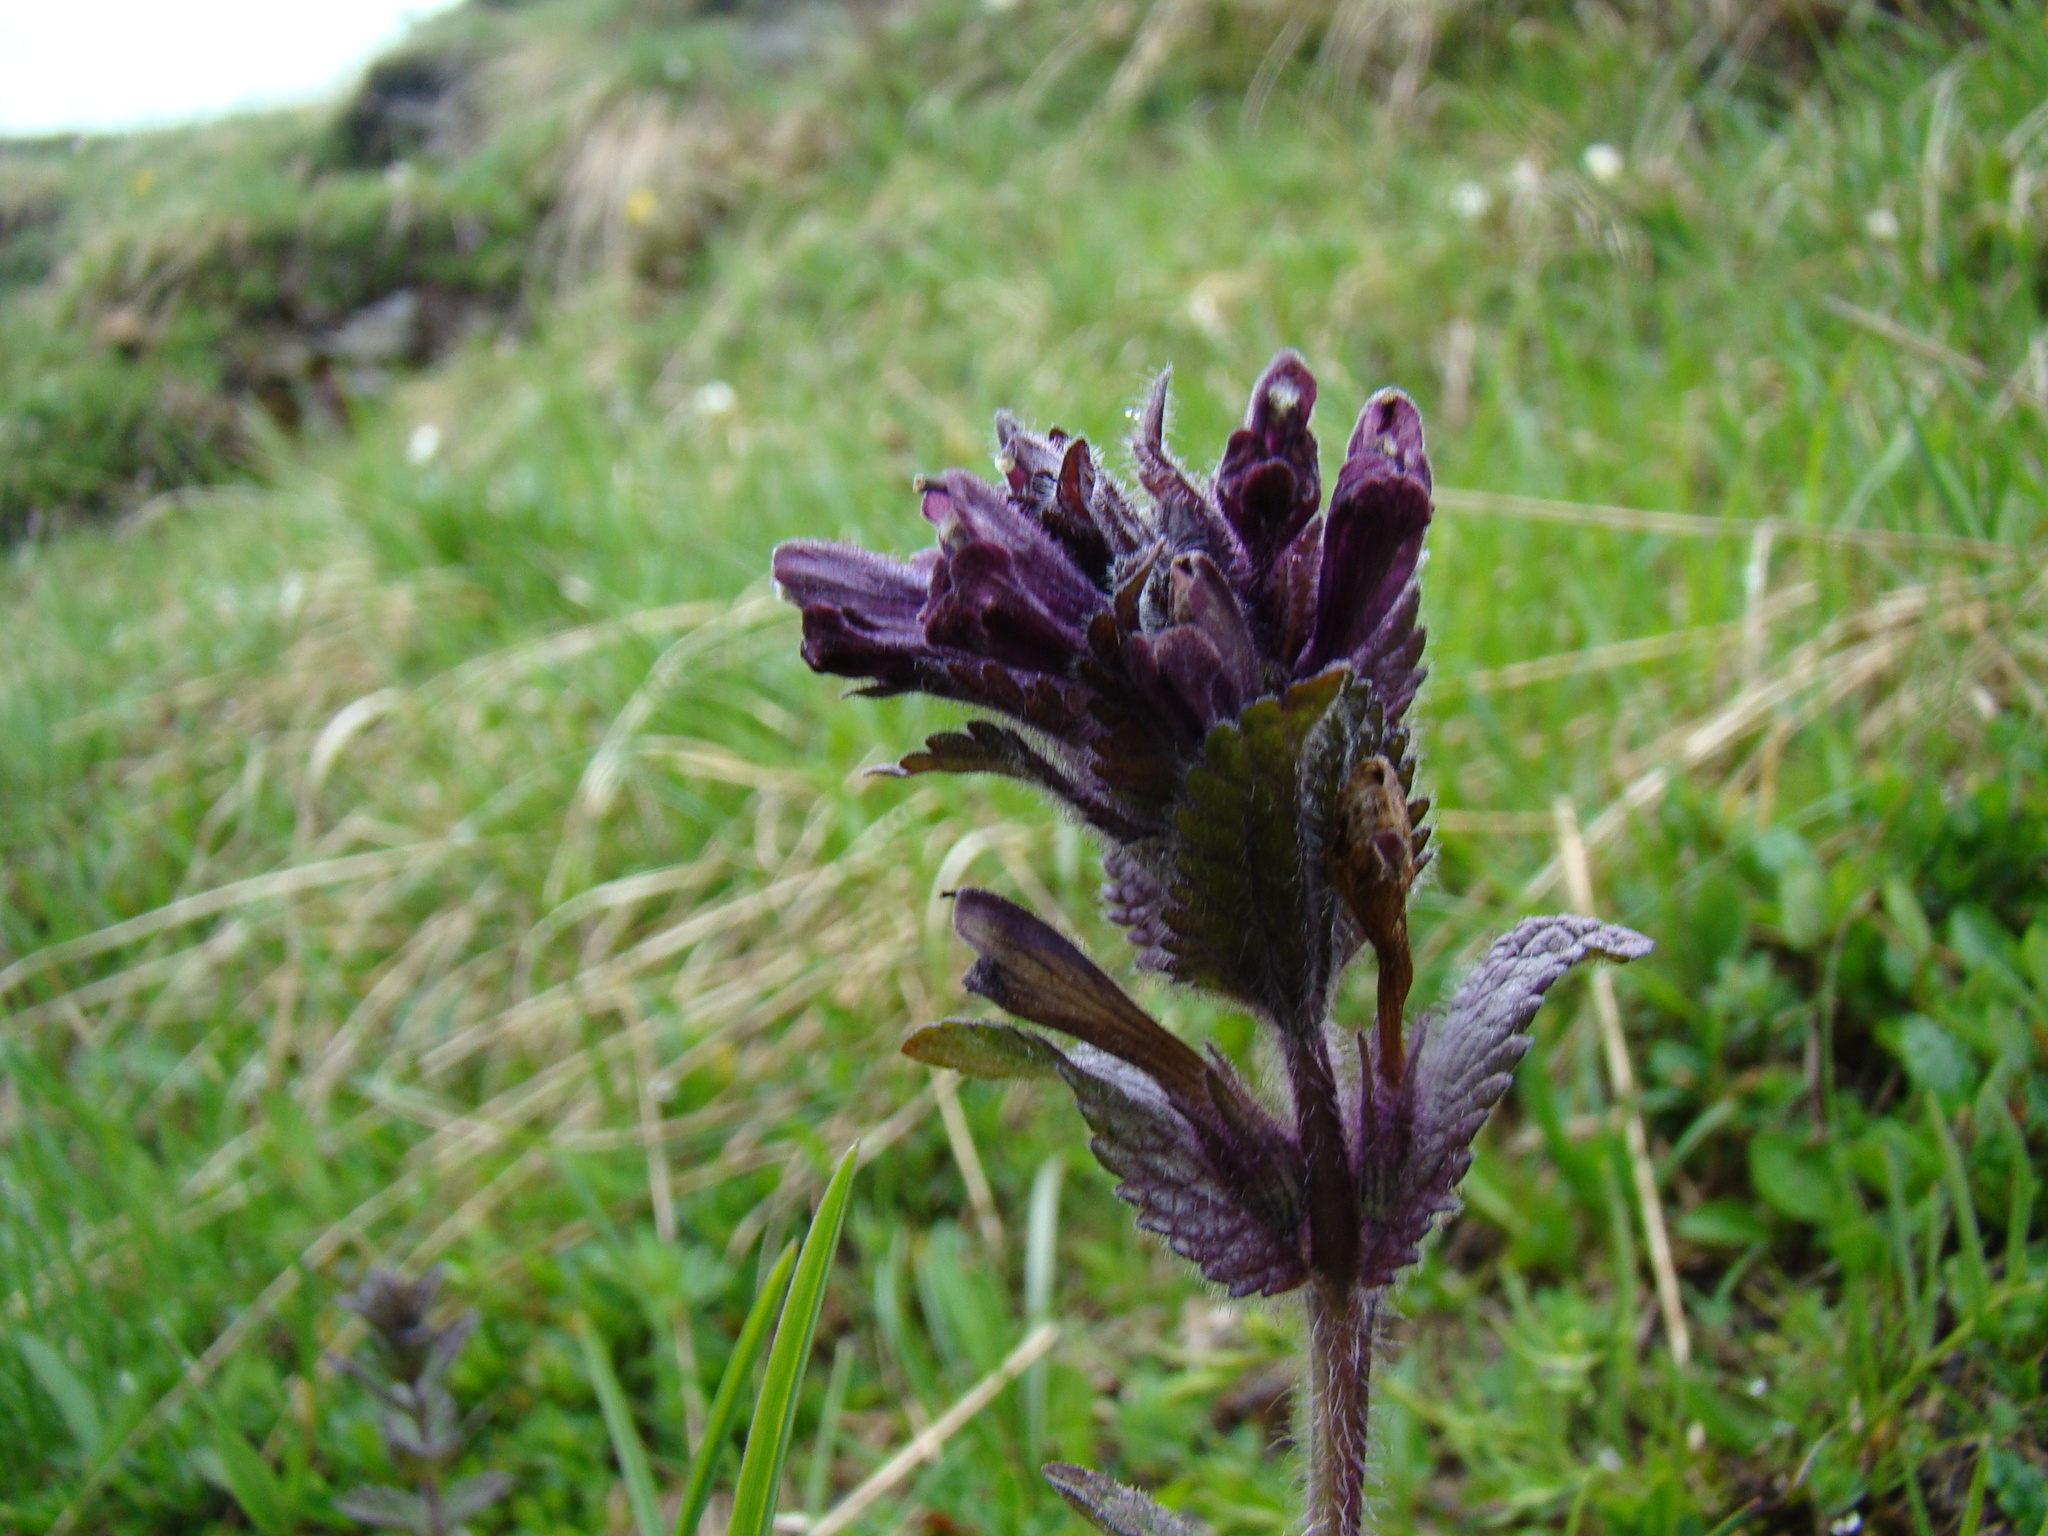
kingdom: Plantae
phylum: Tracheophyta
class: Magnoliopsida
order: Lamiales
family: Orobanchaceae
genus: Bartsia
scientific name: Bartsia alpina
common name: Alpine bartsia
